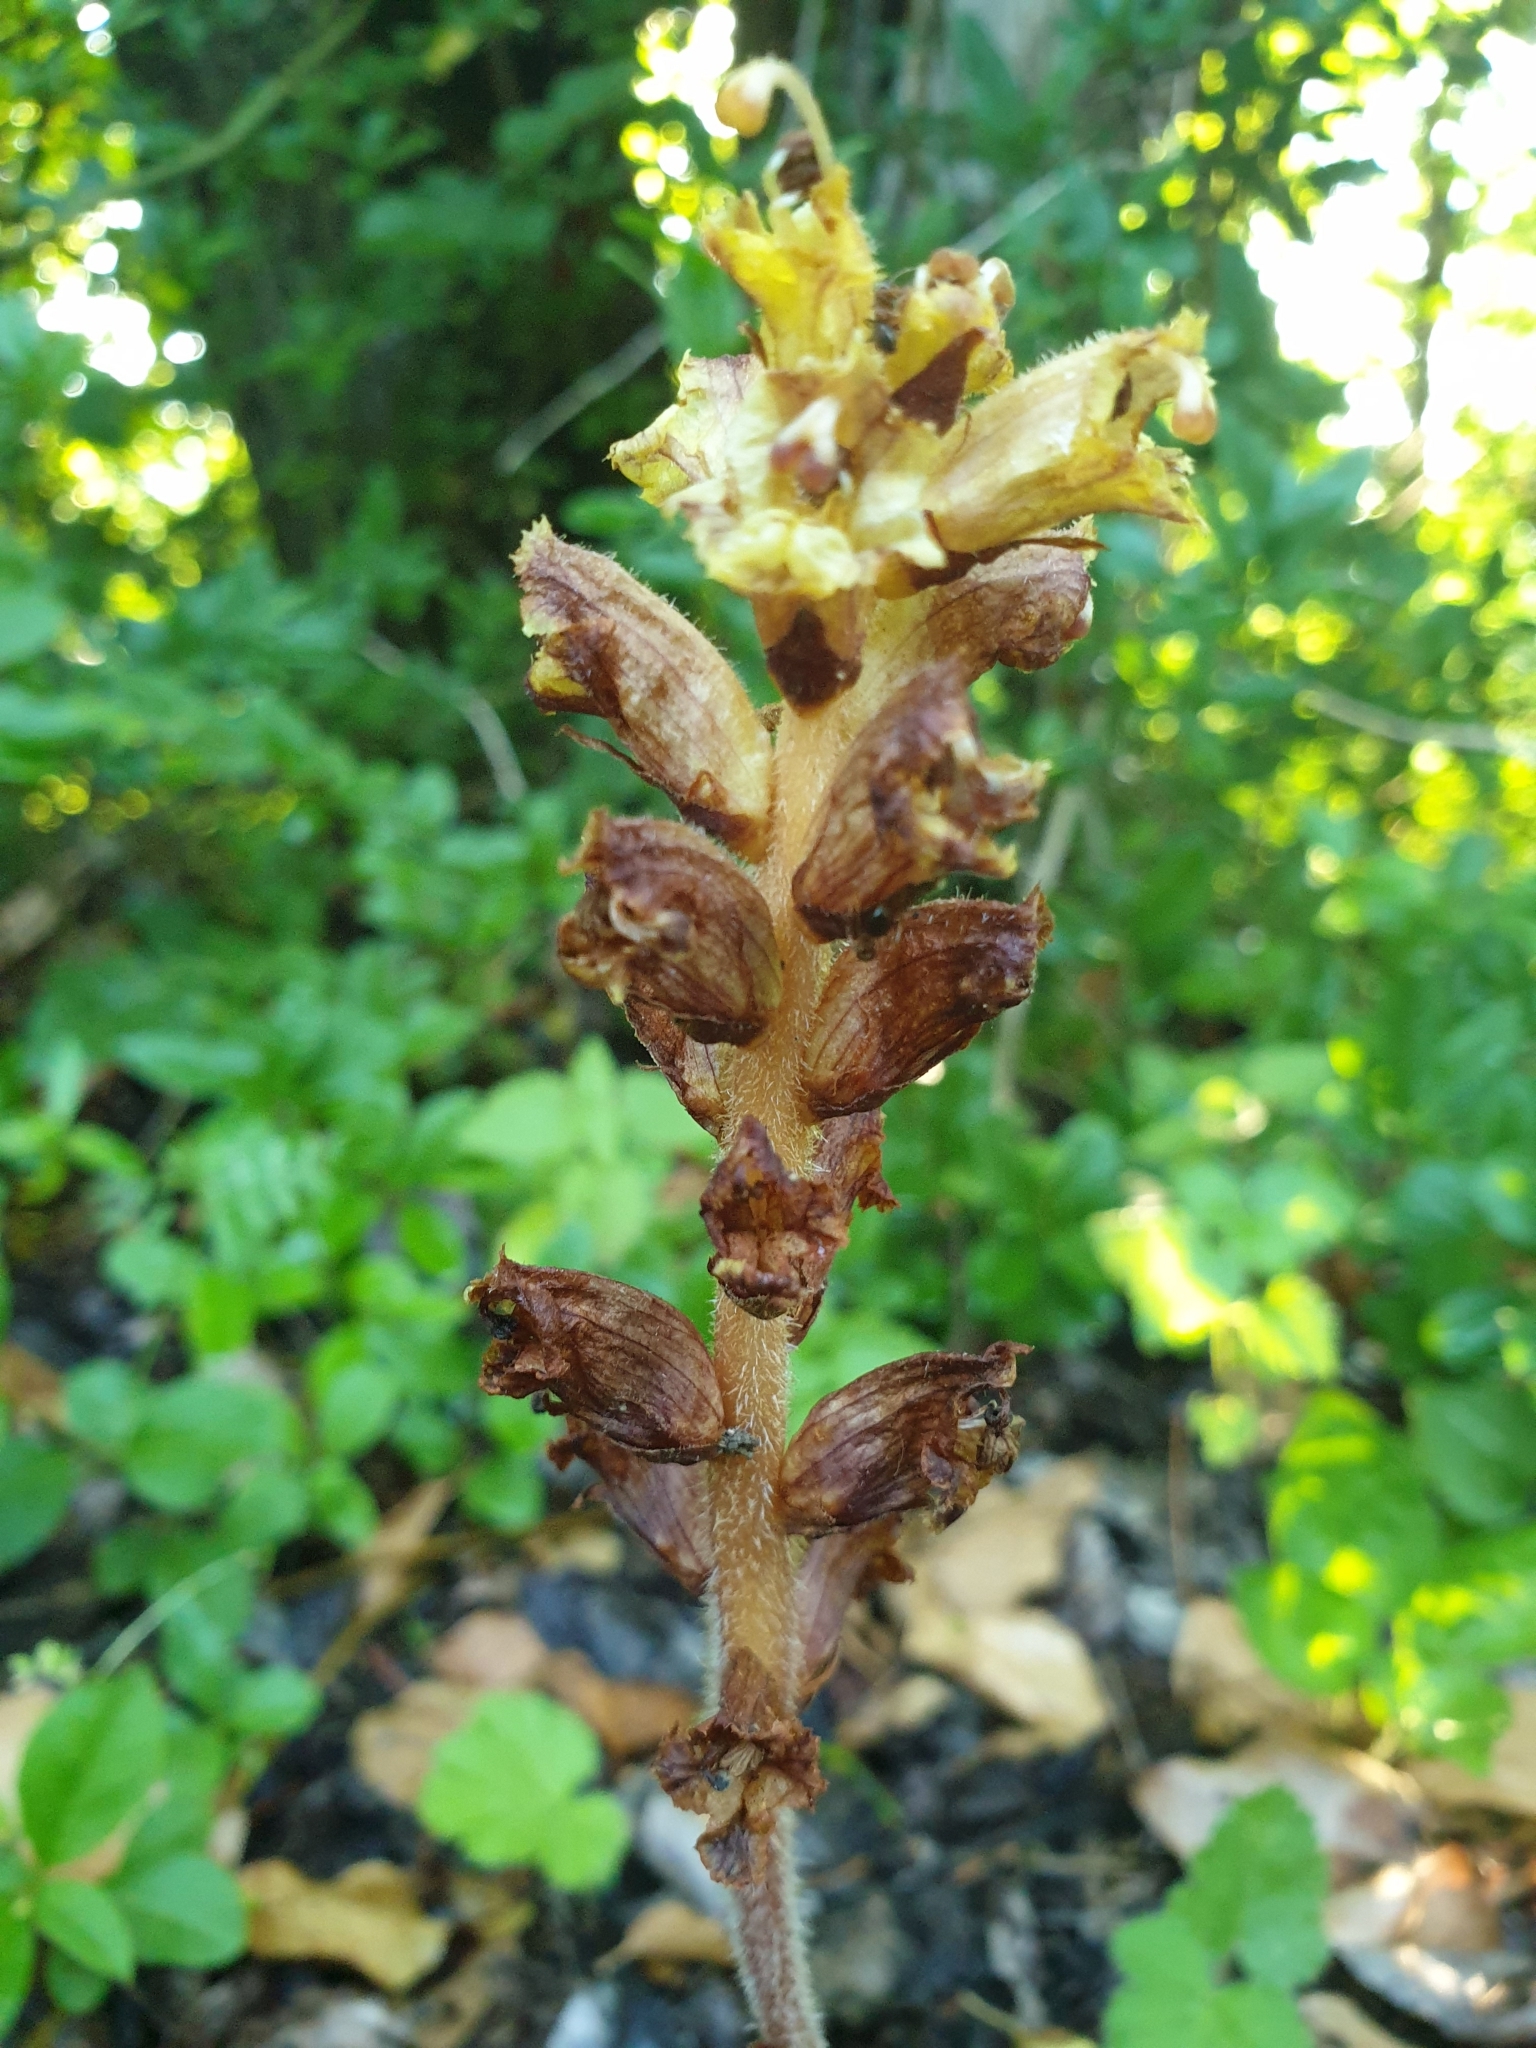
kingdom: Plantae
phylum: Tracheophyta
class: Magnoliopsida
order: Lamiales
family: Orobanchaceae
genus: Orobanche
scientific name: Orobanche gracilis
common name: Slender broomrape
